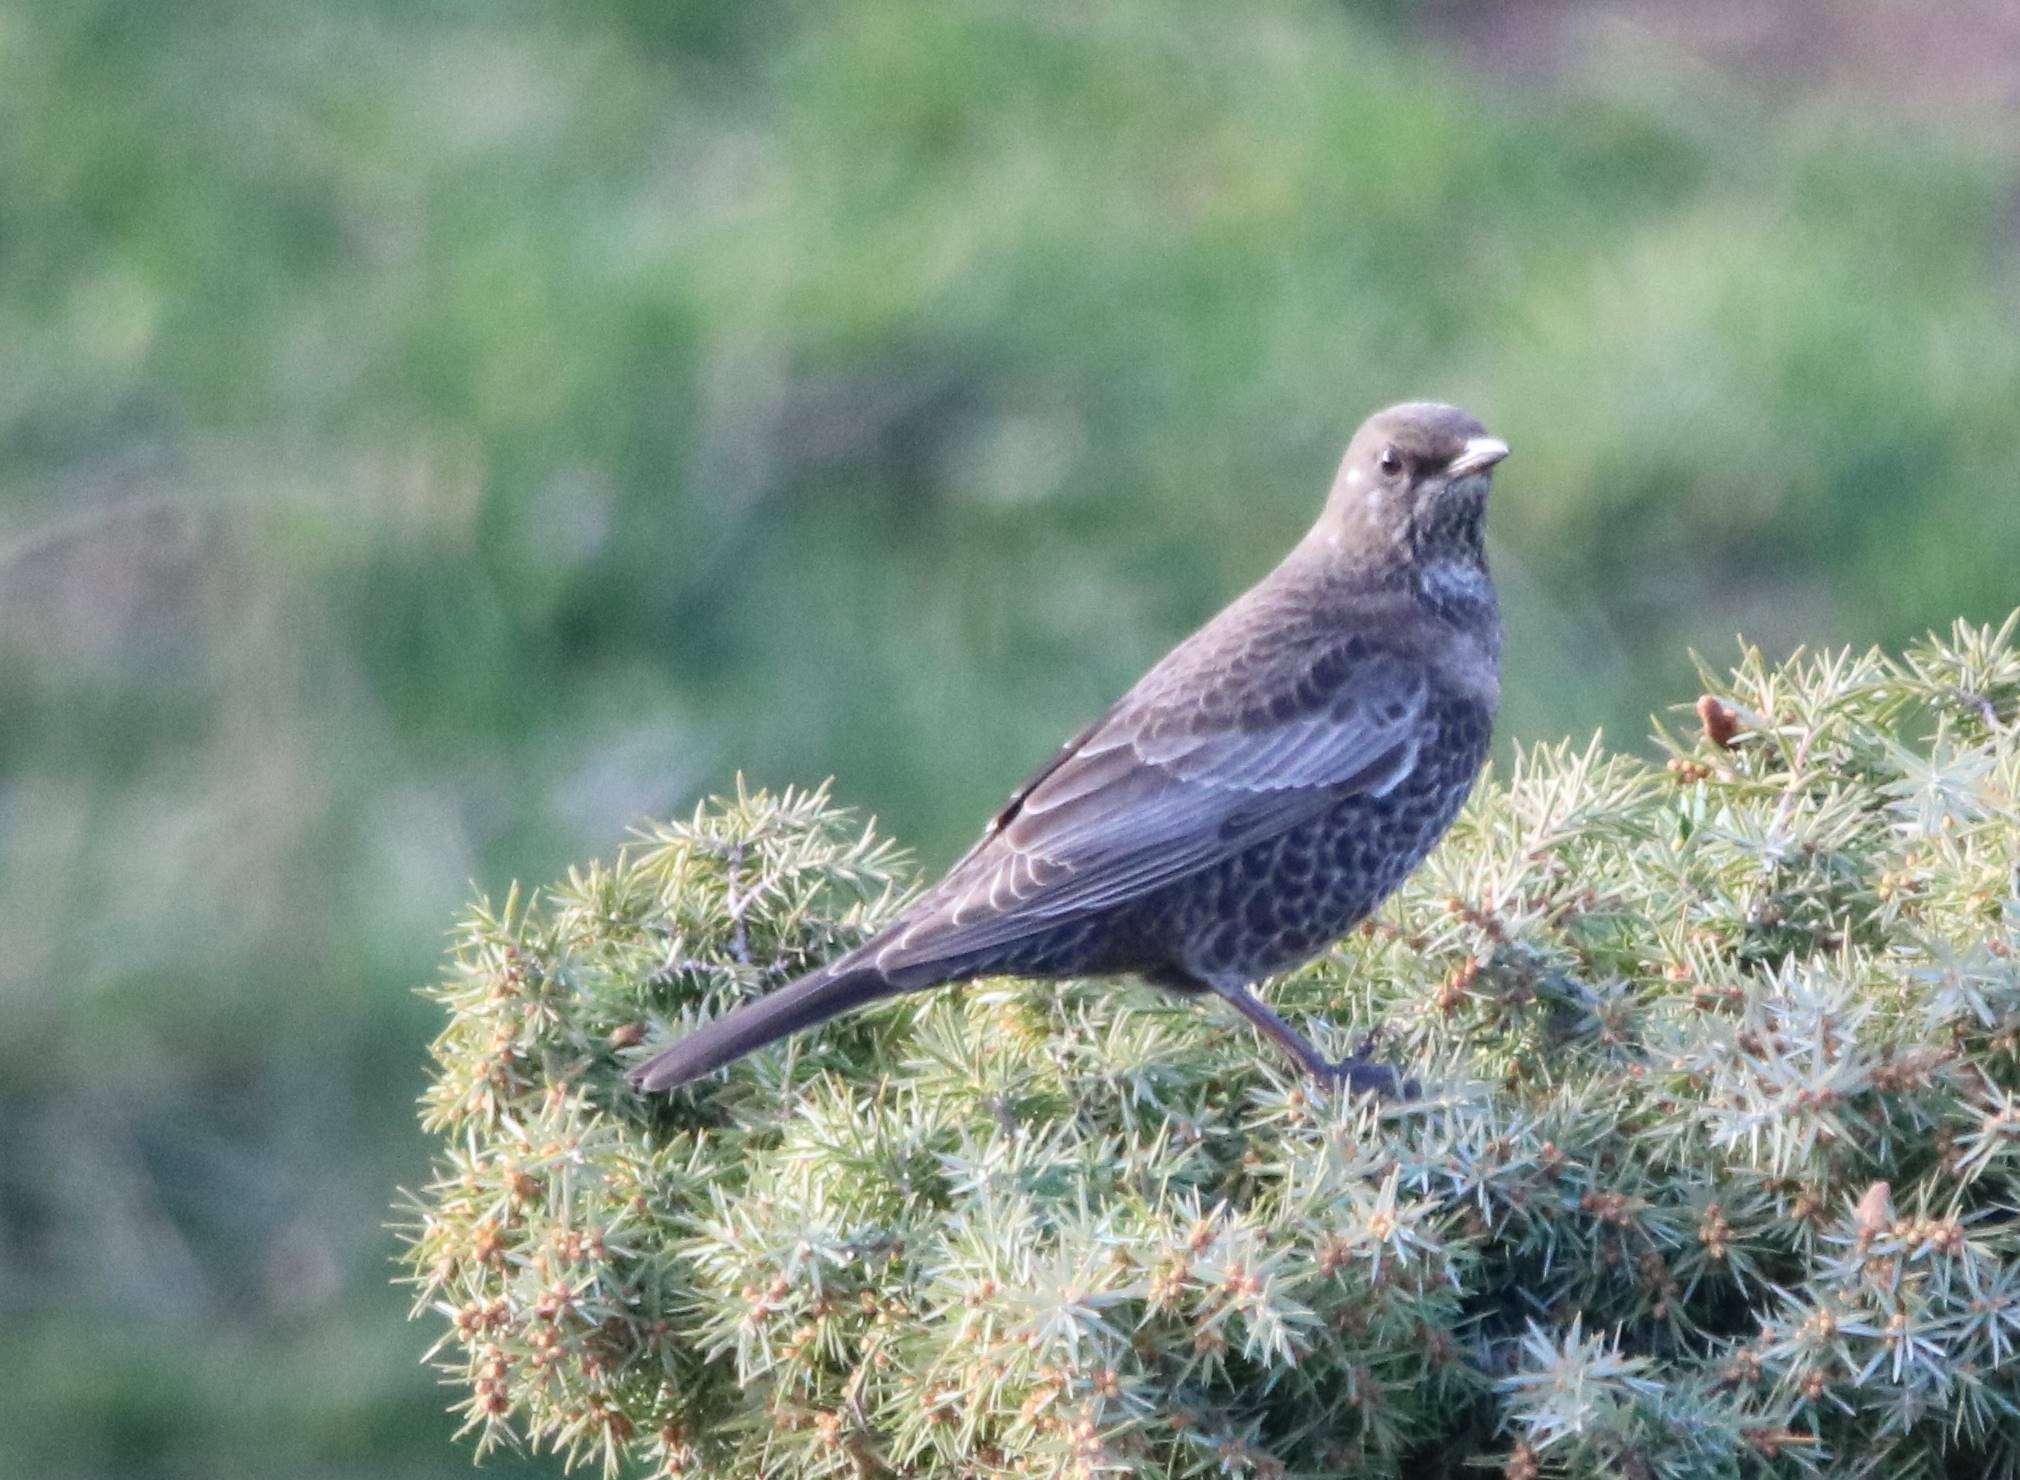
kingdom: Animalia
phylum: Chordata
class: Aves
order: Passeriformes
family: Turdidae
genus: Turdus
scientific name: Turdus torquatus
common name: Ring ouzel
